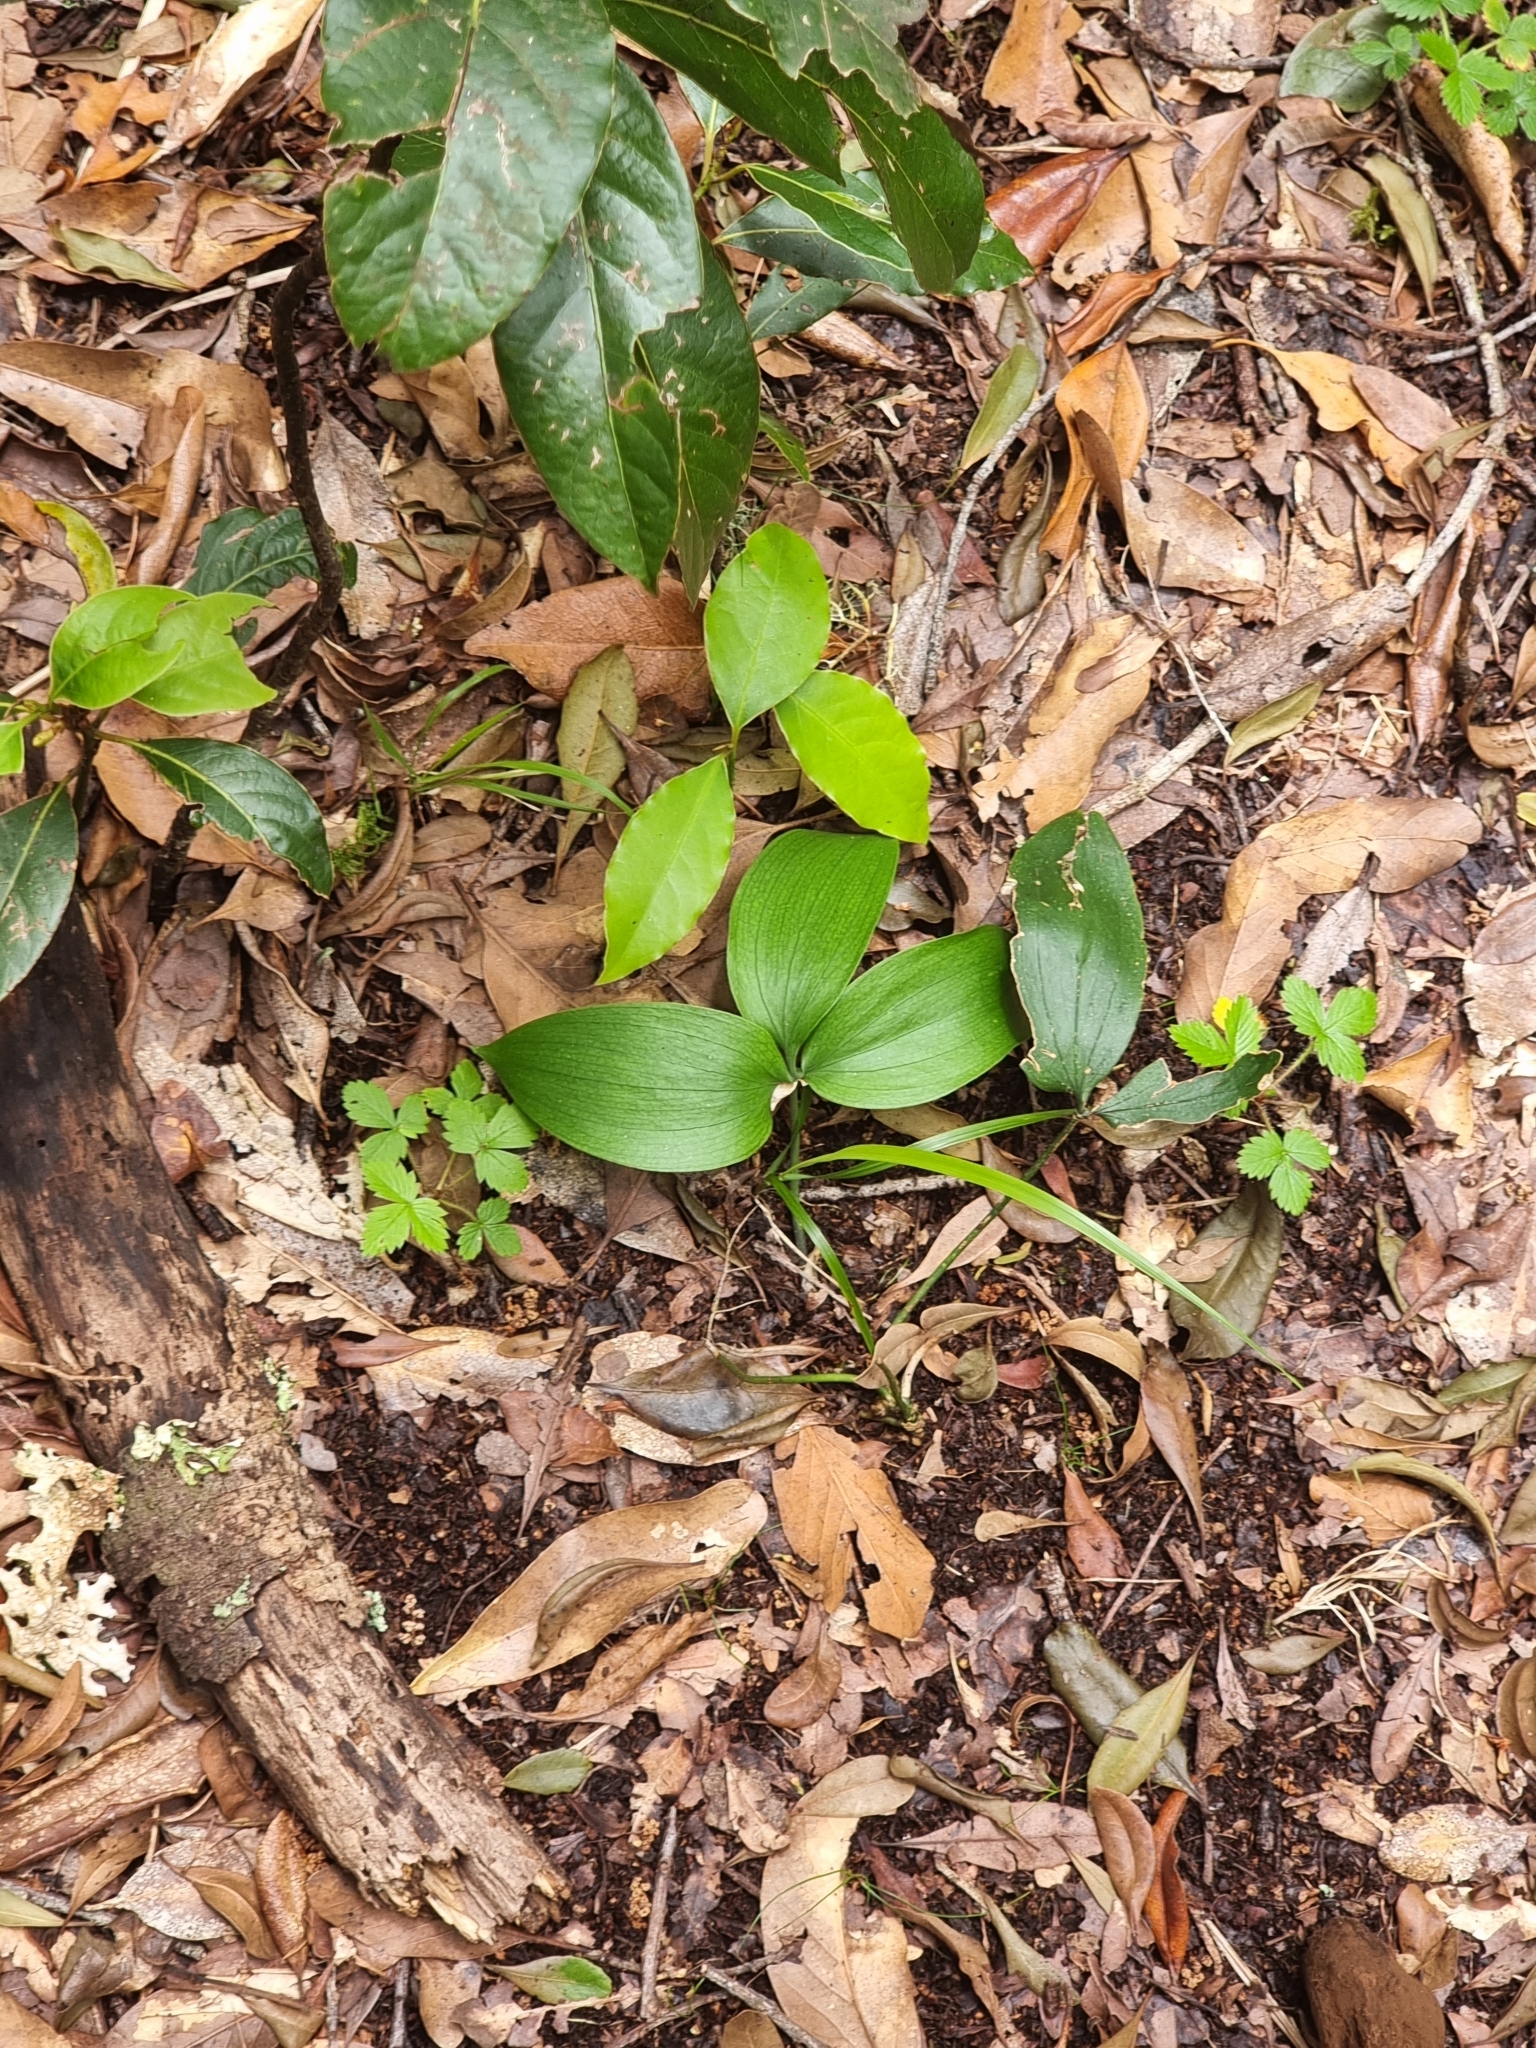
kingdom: Plantae
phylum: Tracheophyta
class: Liliopsida
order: Asparagales
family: Asparagaceae
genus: Ruscus
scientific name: Ruscus streptophyllus
